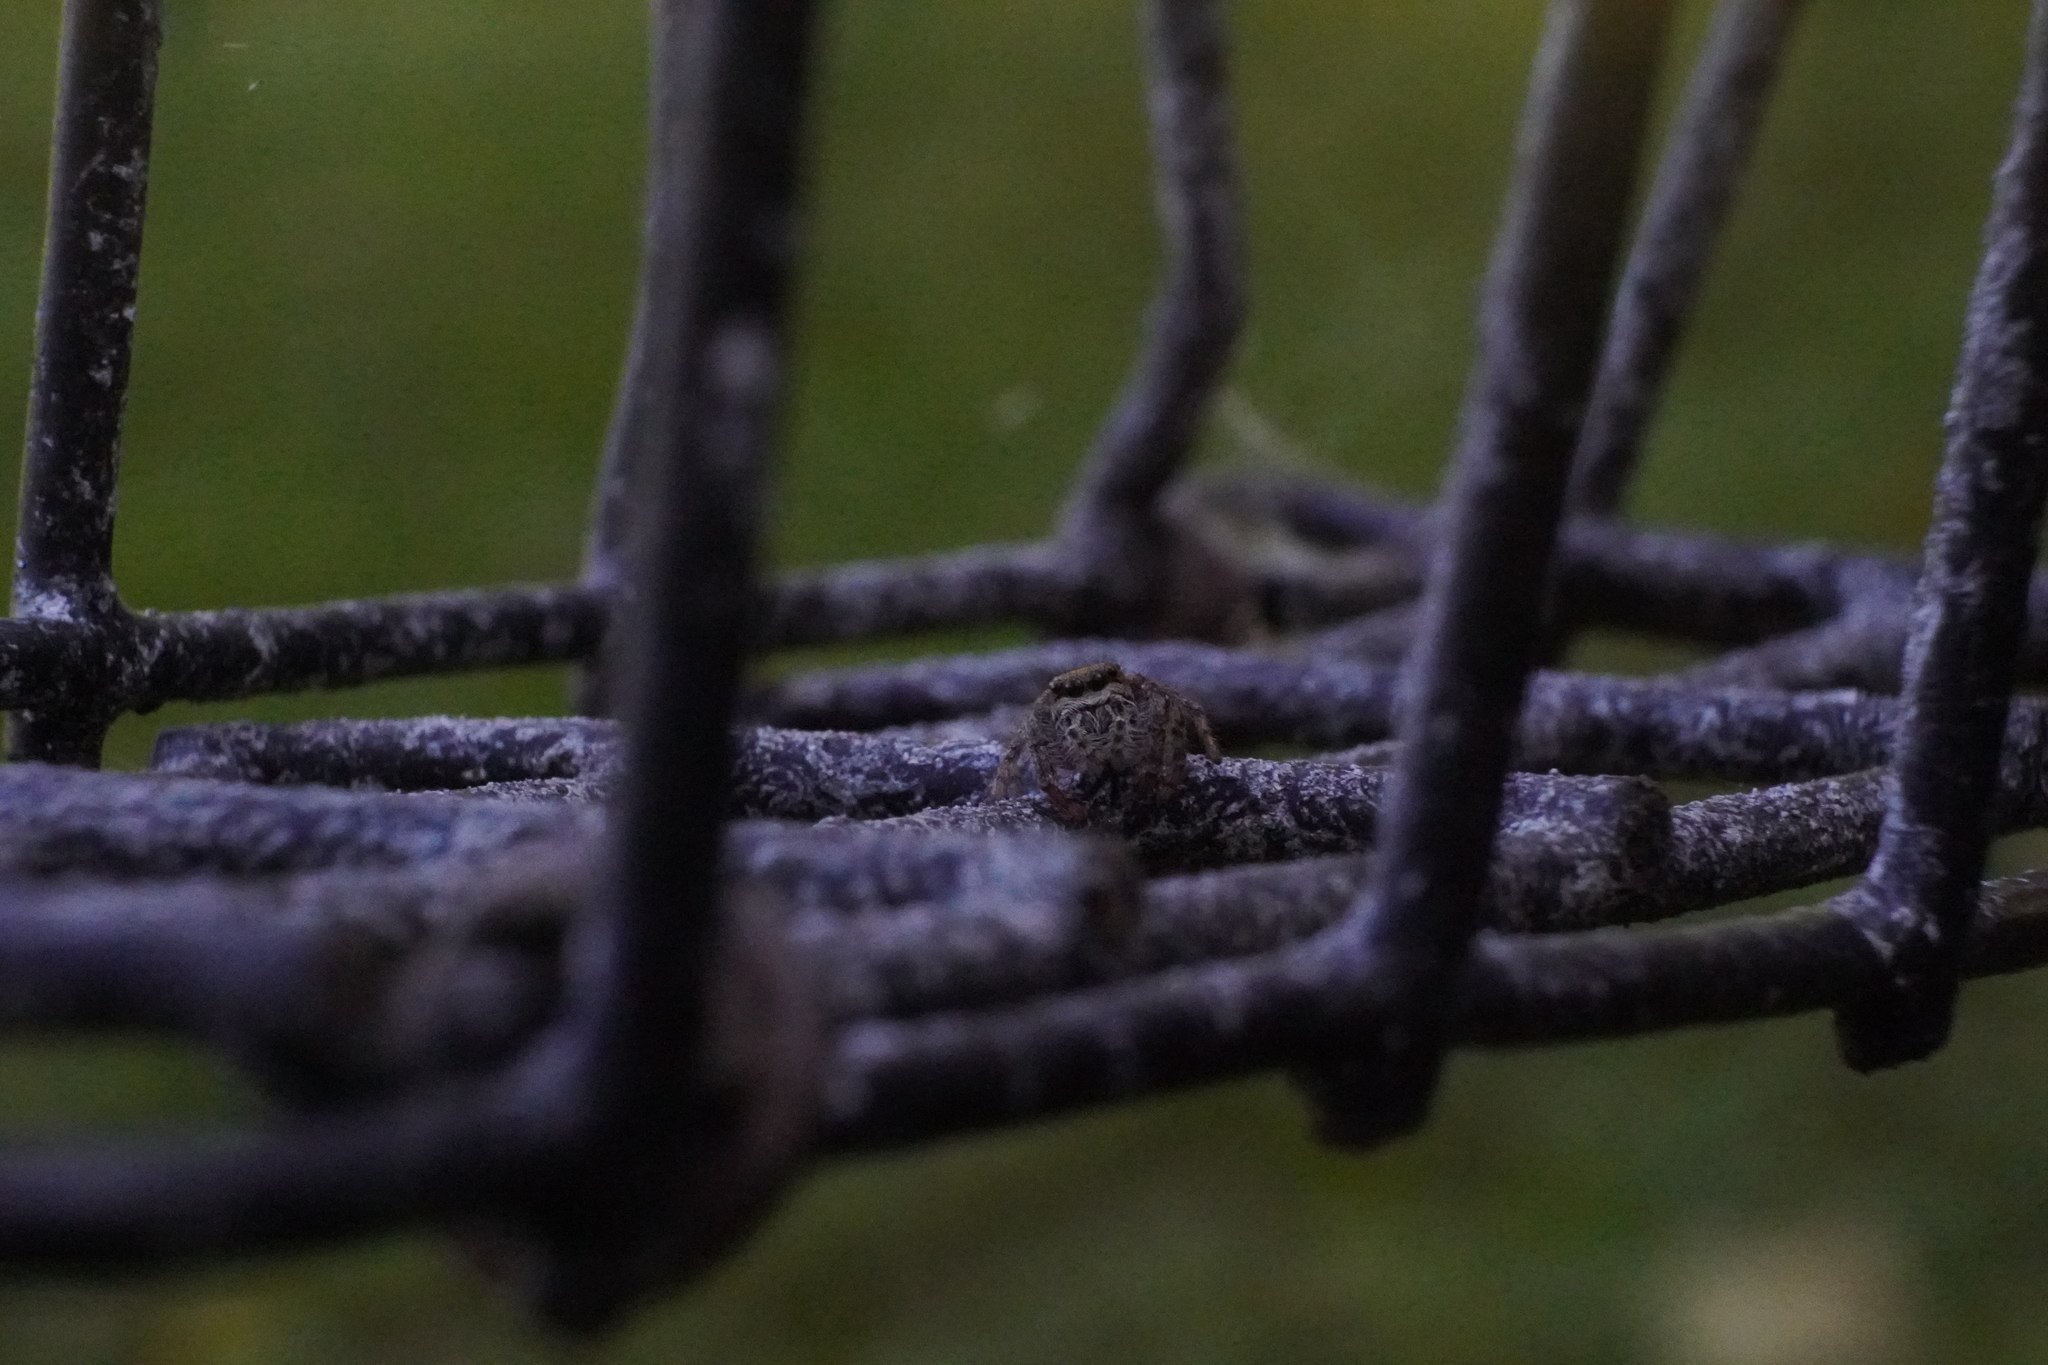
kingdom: Animalia
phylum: Arthropoda
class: Arachnida
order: Araneae
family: Salticidae
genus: Eris
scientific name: Eris militaris
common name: Bronze jumper
